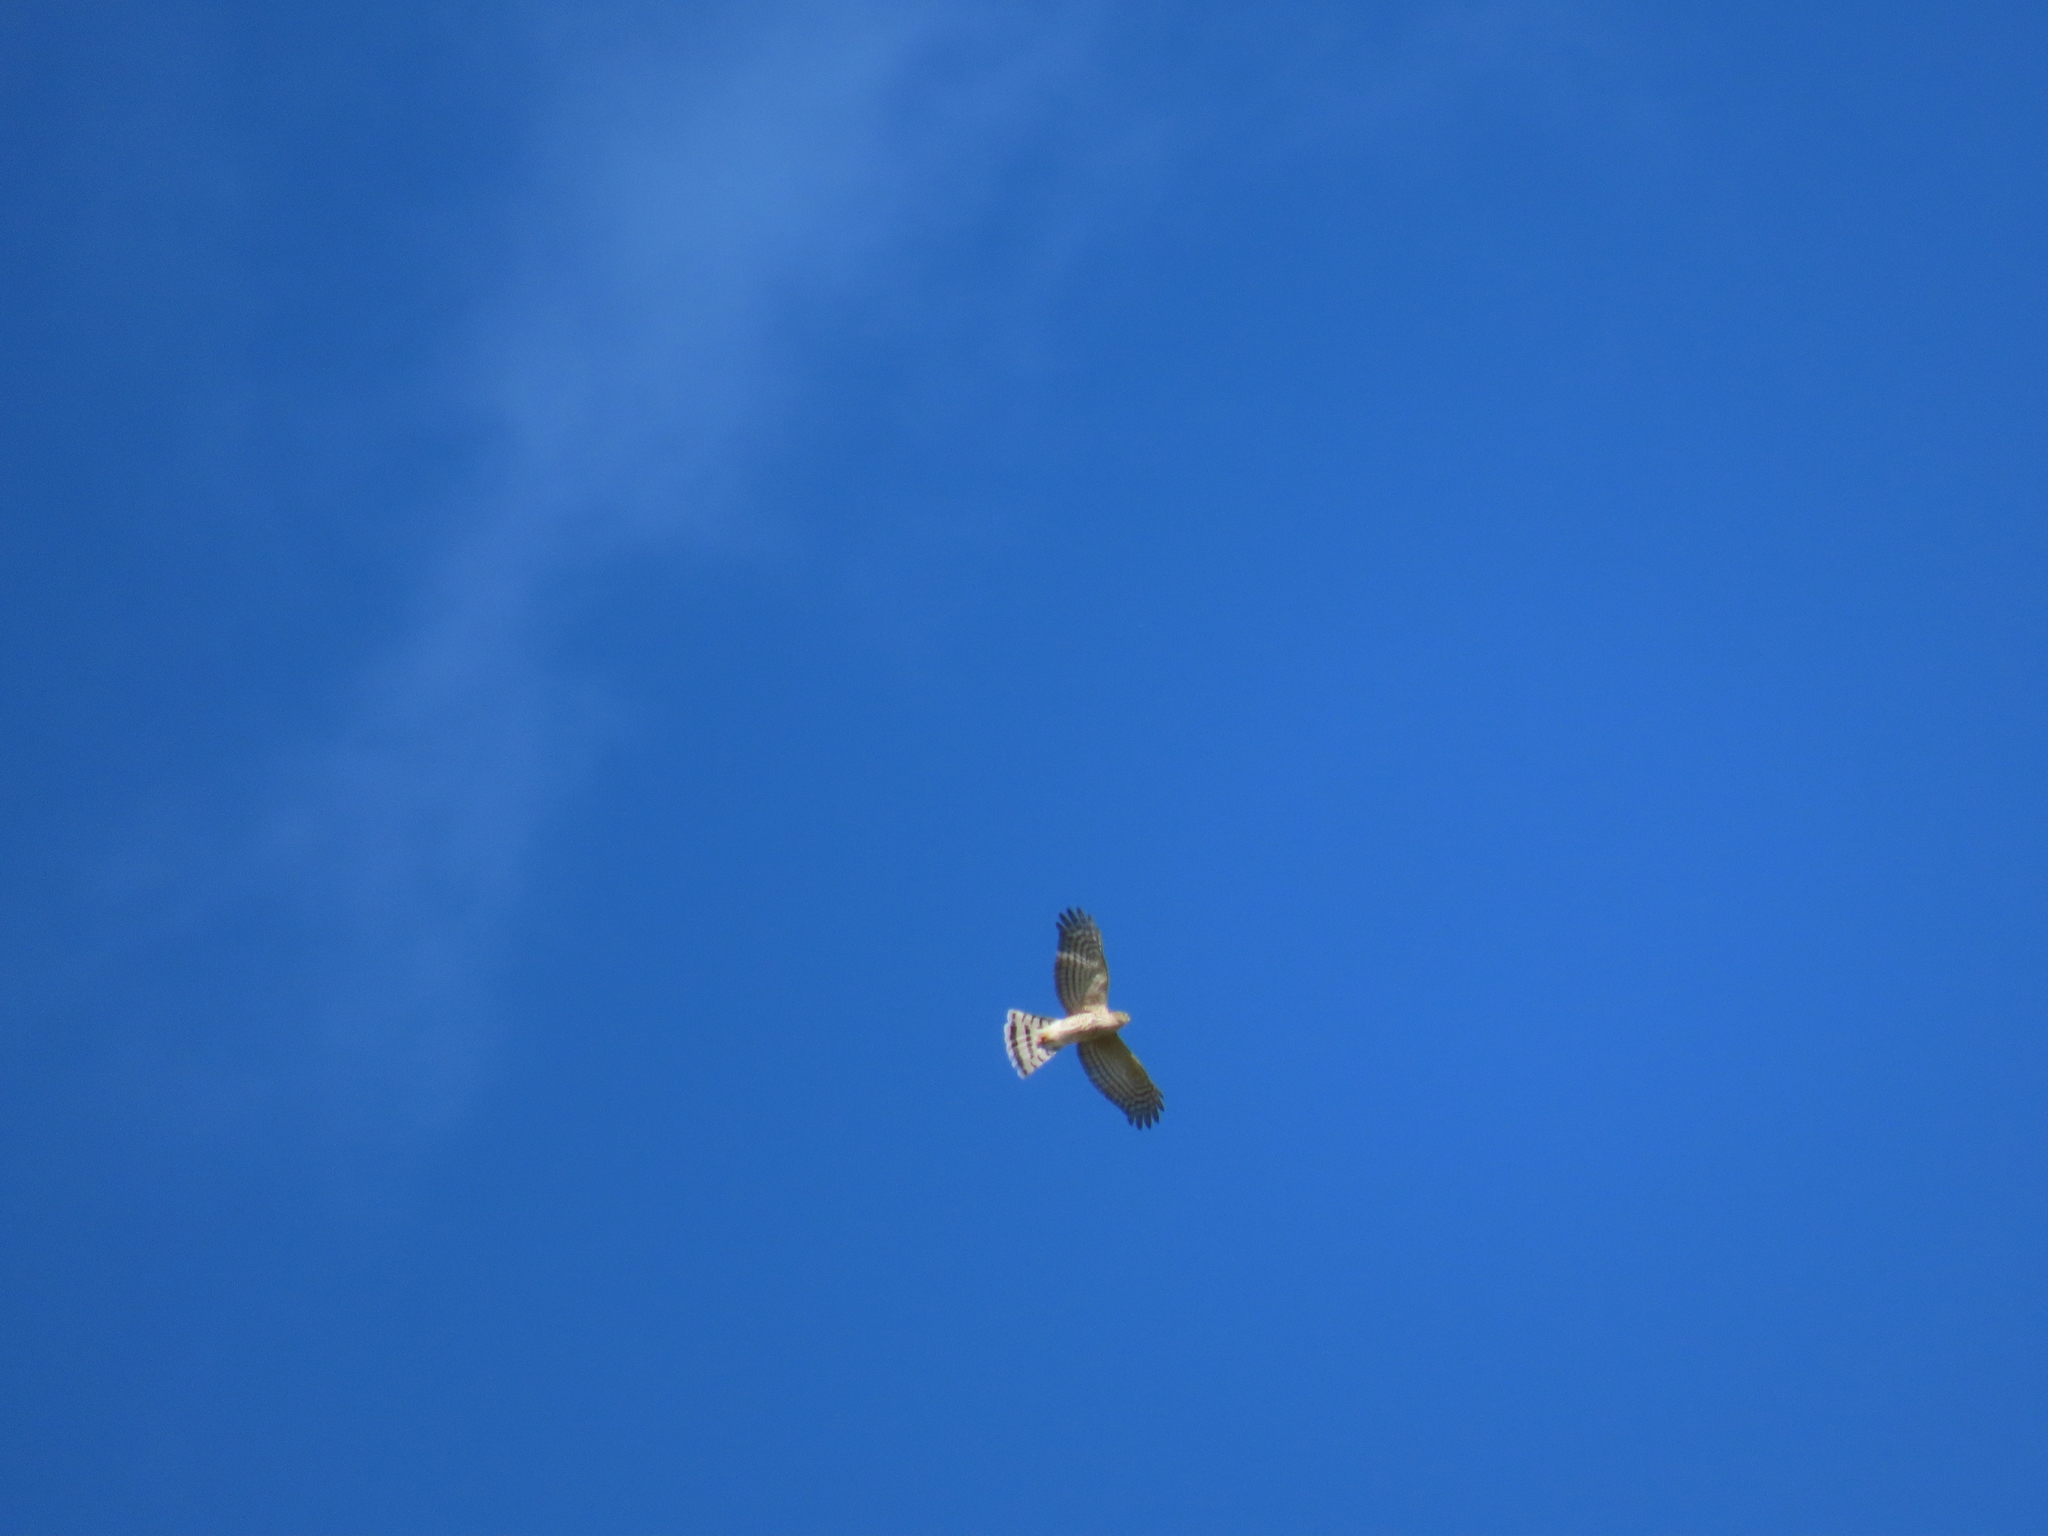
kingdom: Animalia
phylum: Chordata
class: Aves
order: Accipitriformes
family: Accipitridae
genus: Circus
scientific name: Circus cyaneus
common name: Hen harrier
